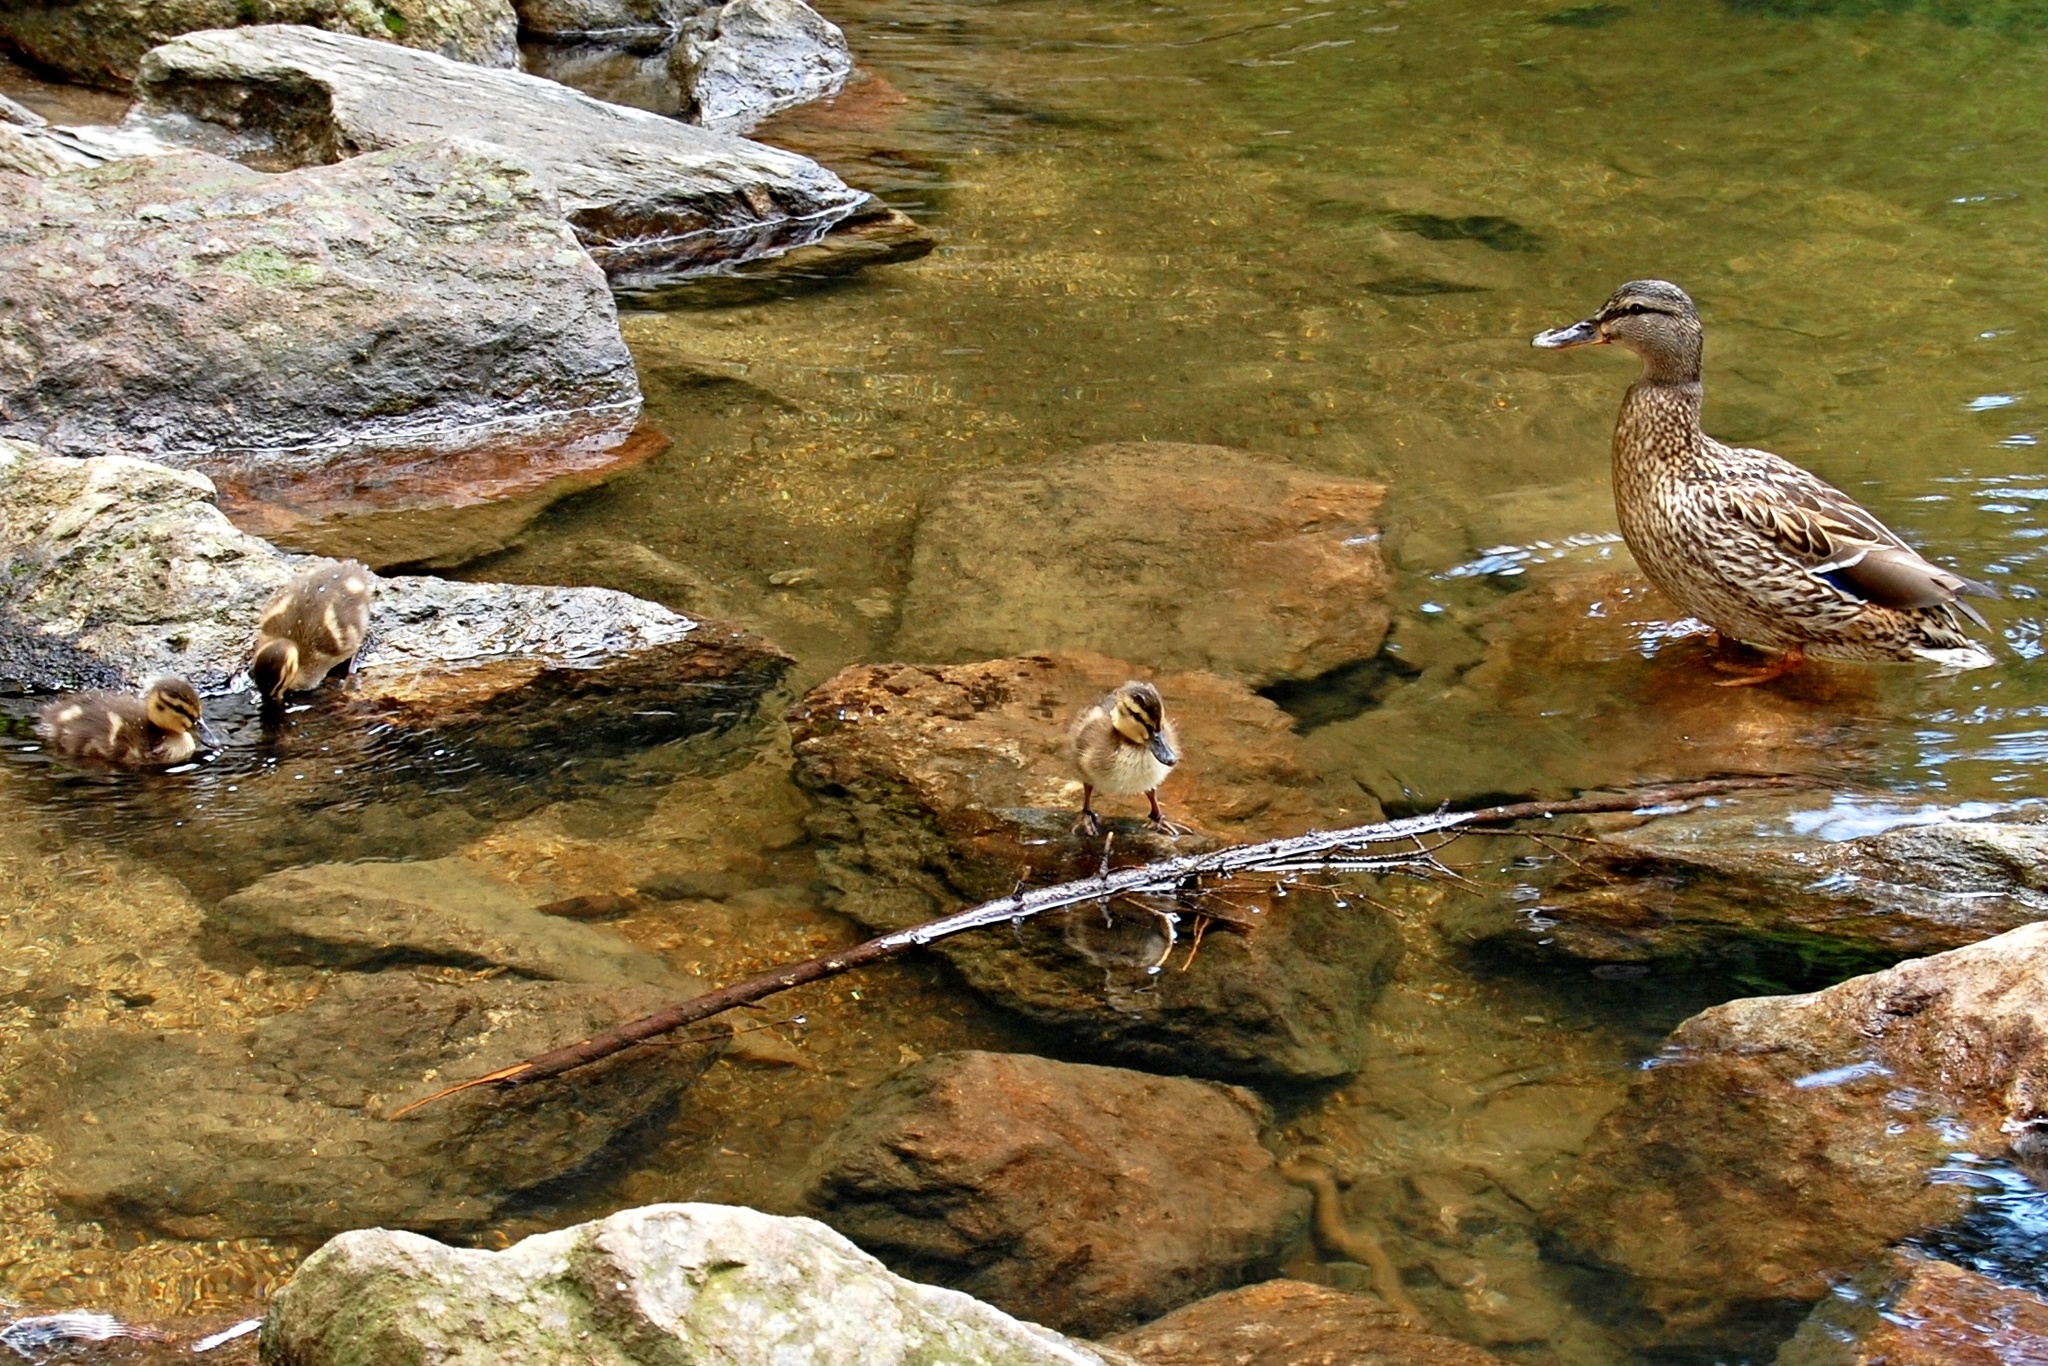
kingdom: Animalia
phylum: Chordata
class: Aves
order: Anseriformes
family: Anatidae
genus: Anas
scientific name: Anas platyrhynchos
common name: Mallard
